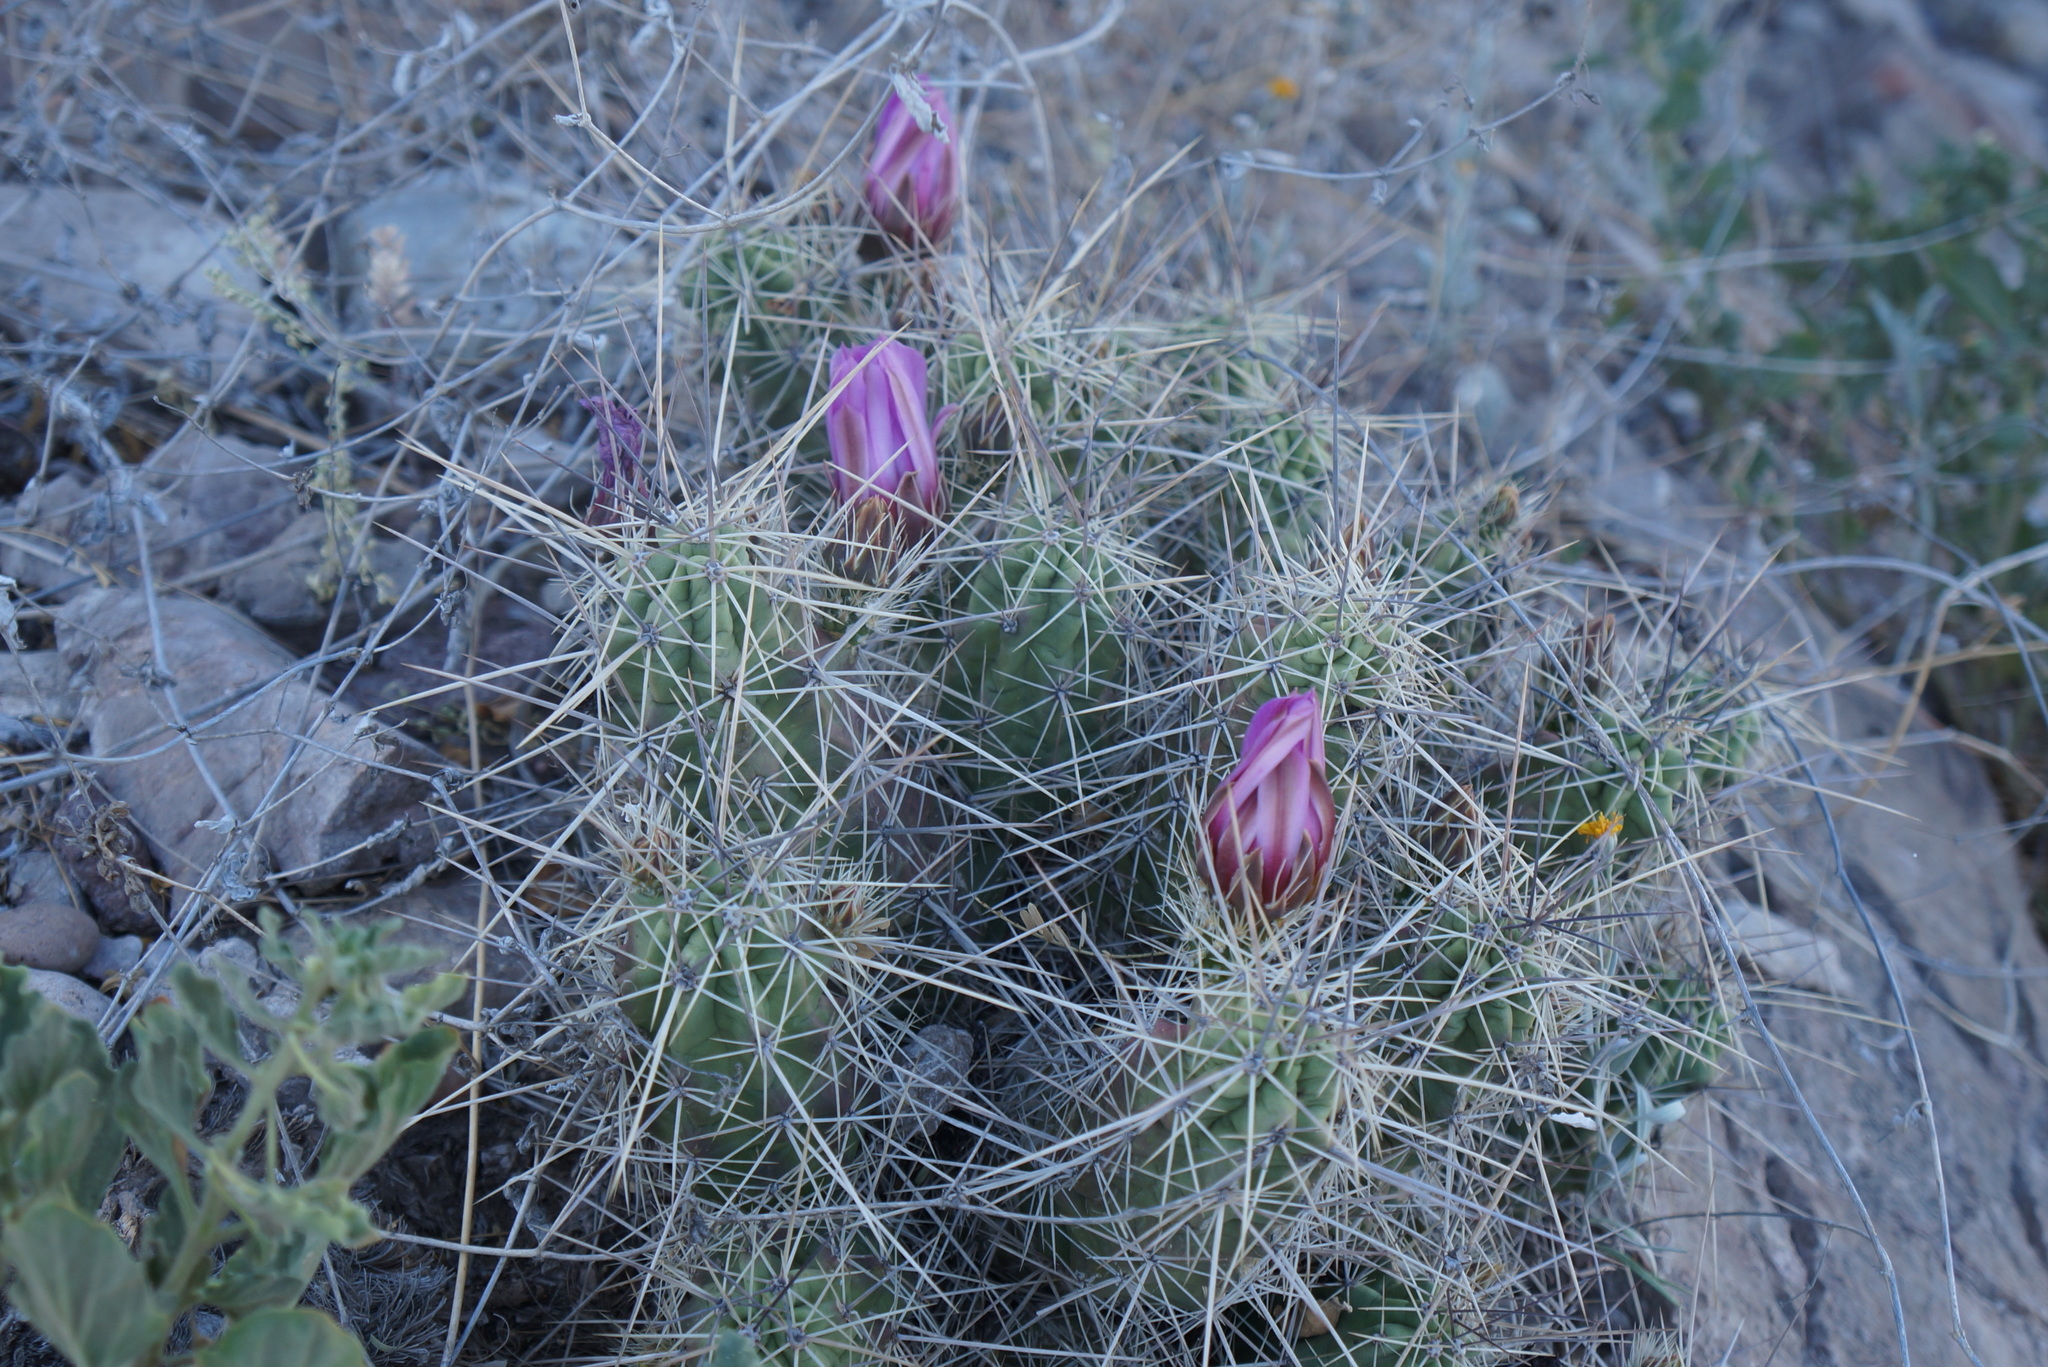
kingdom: Plantae
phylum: Tracheophyta
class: Magnoliopsida
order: Caryophyllales
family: Cactaceae
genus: Echinocereus
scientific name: Echinocereus enneacanthus
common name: Pitaya
